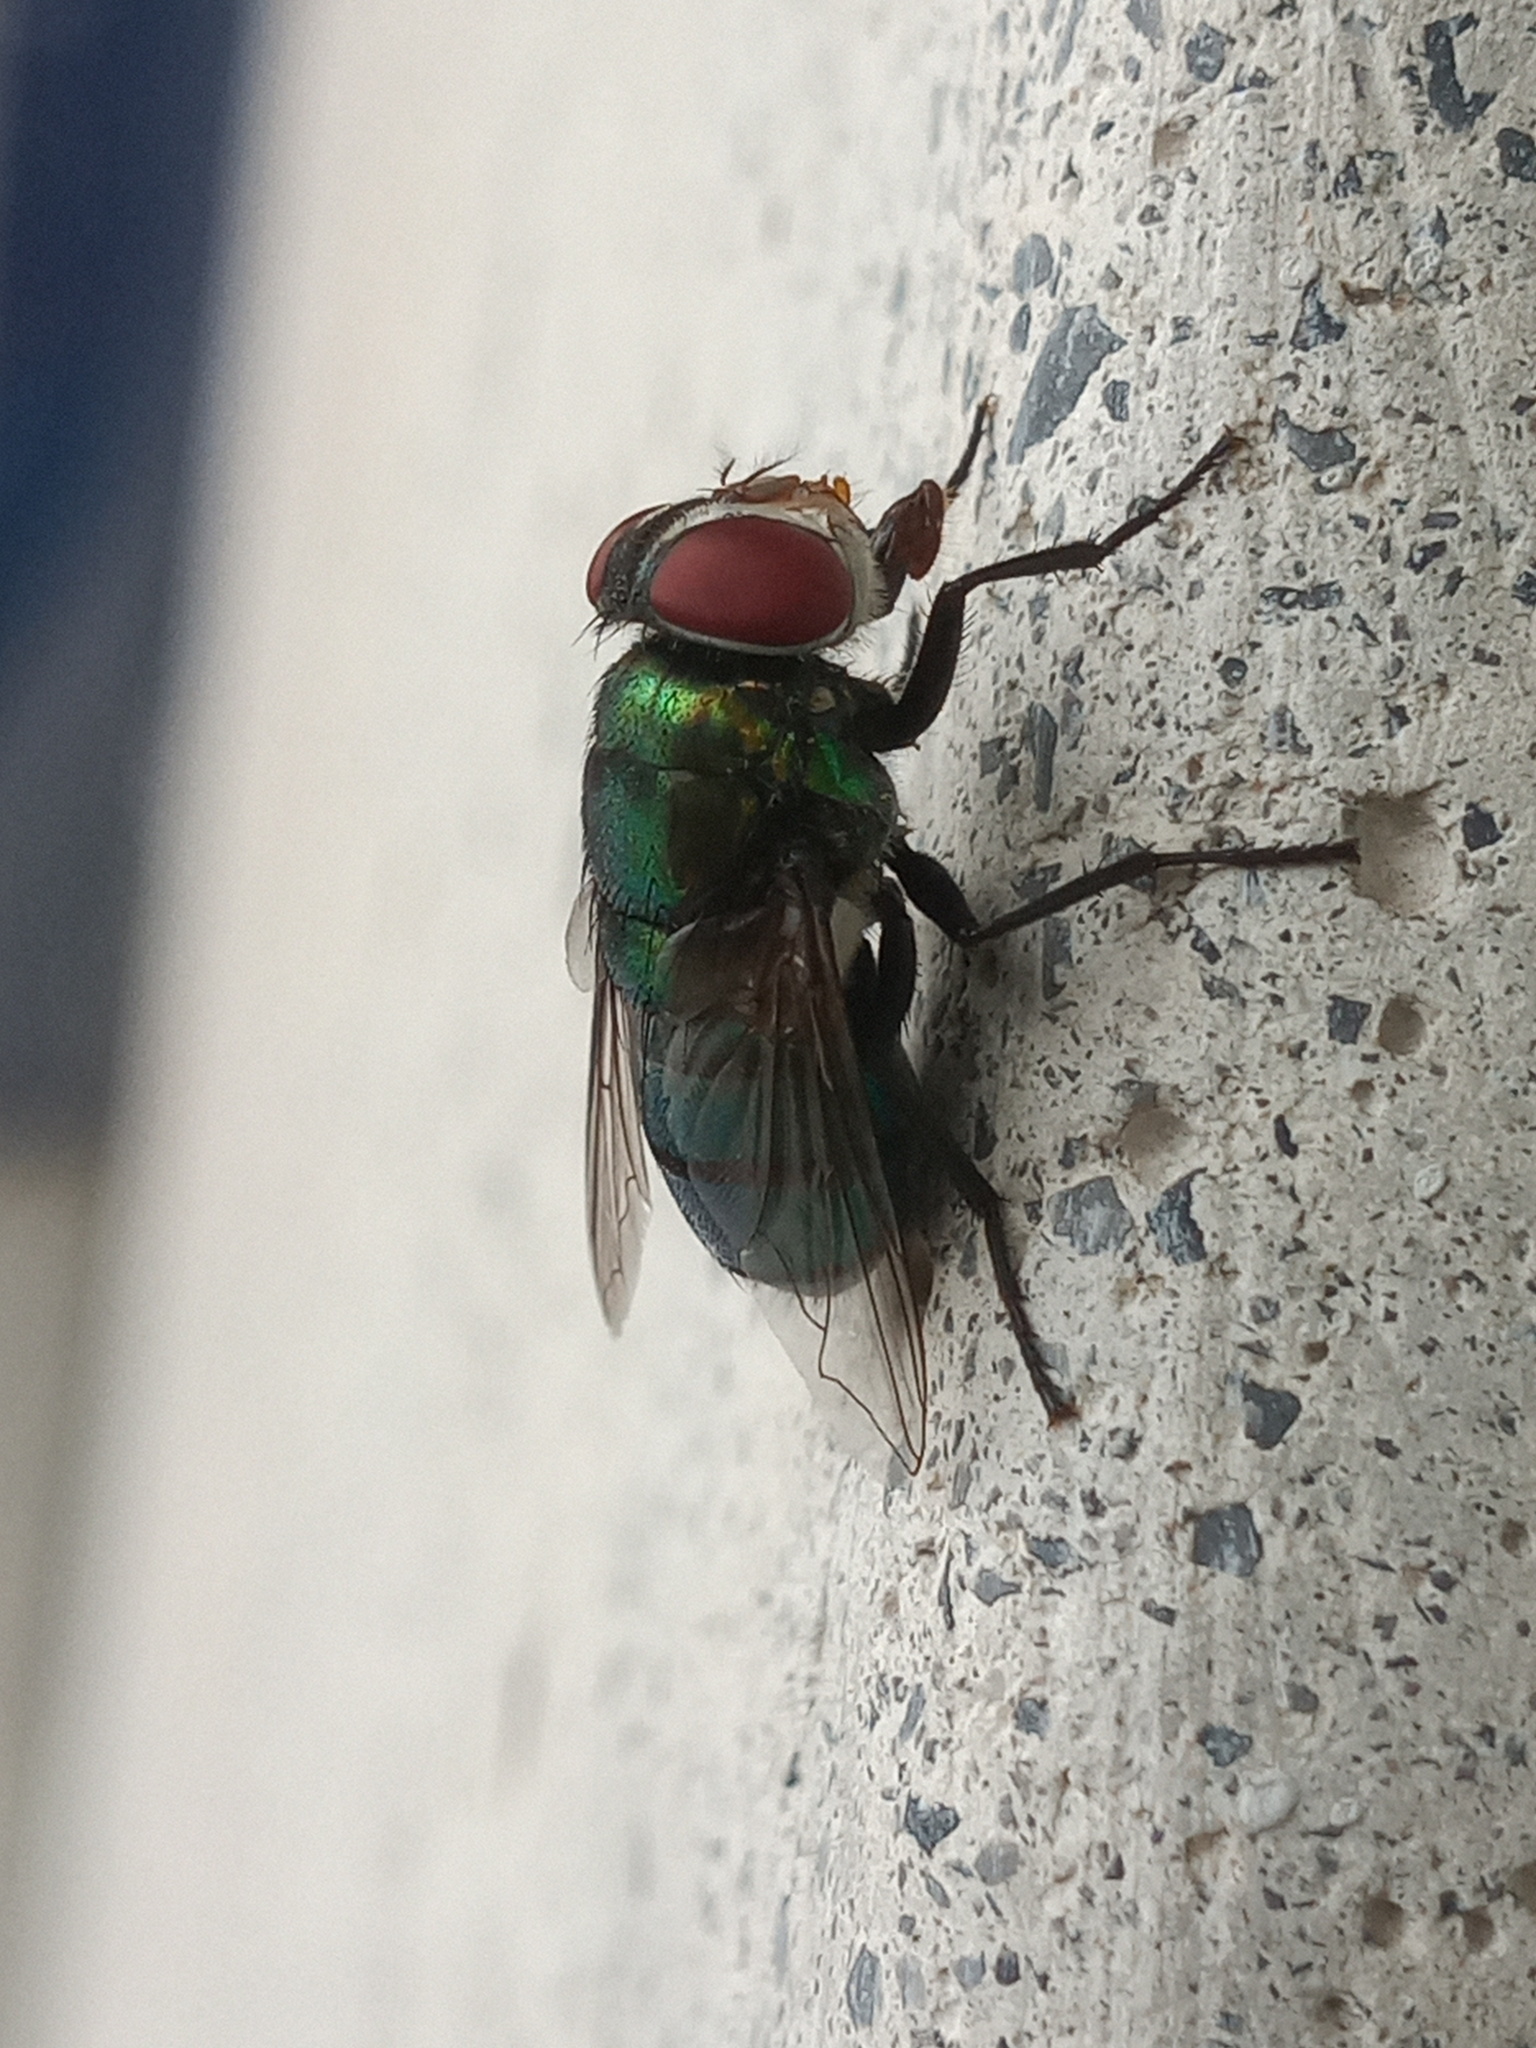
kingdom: Animalia
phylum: Arthropoda
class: Insecta
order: Diptera
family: Calliphoridae
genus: Chrysomya
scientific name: Chrysomya albiceps
